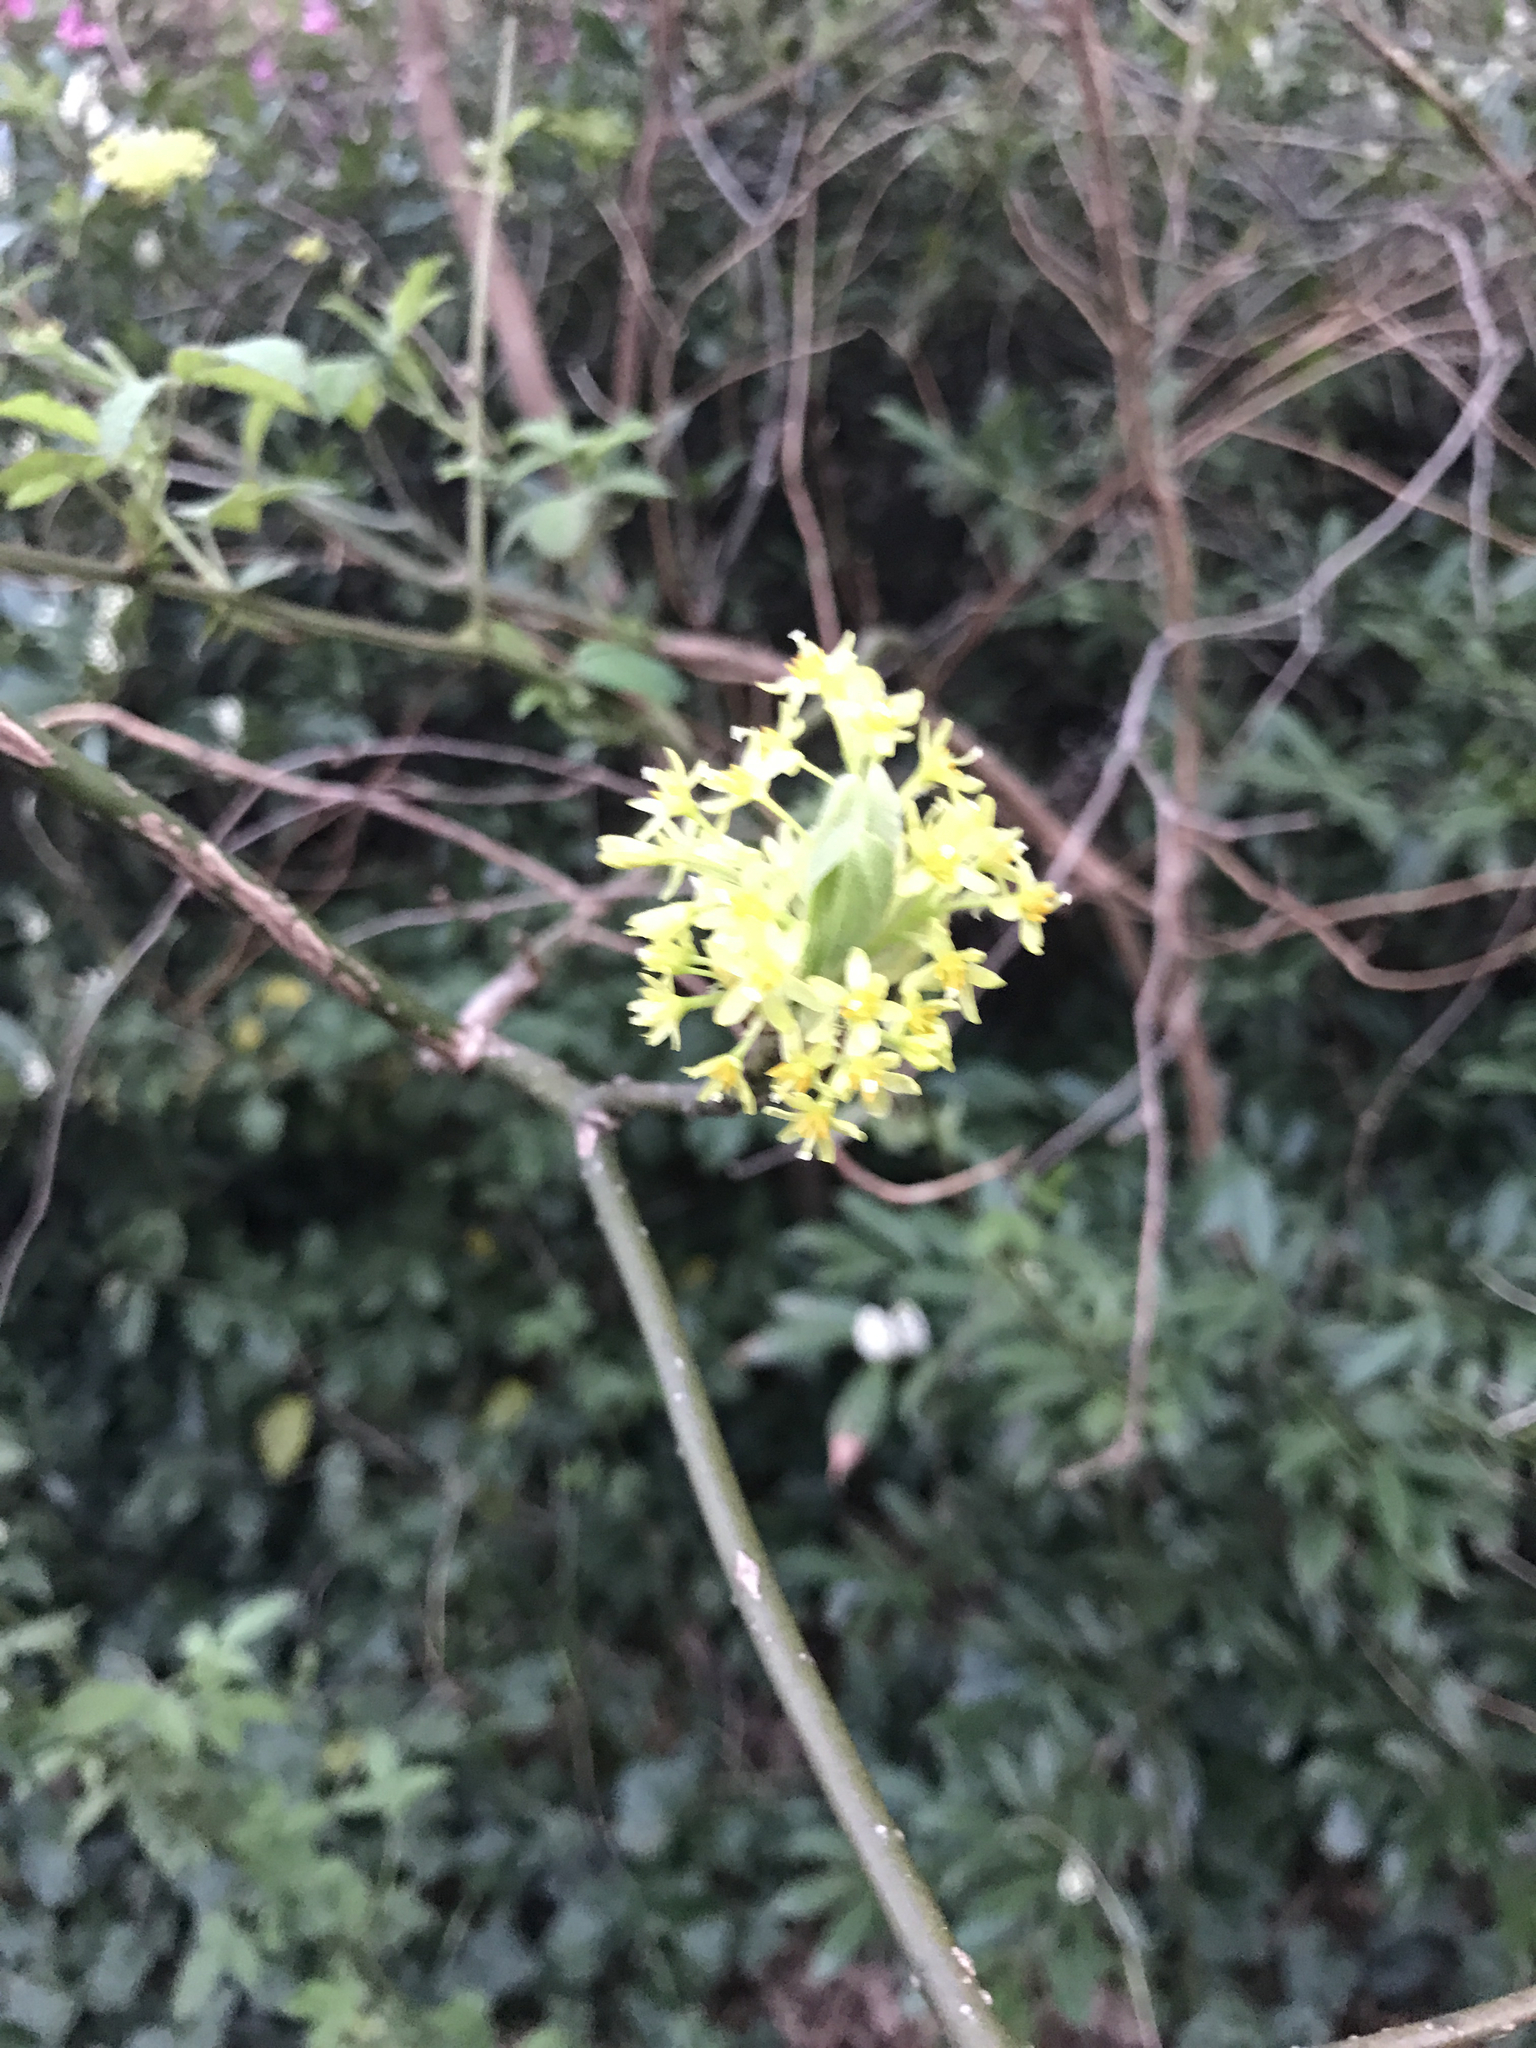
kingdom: Plantae
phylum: Tracheophyta
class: Magnoliopsida
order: Laurales
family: Lauraceae
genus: Sassafras
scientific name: Sassafras albidum
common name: Sassafras
